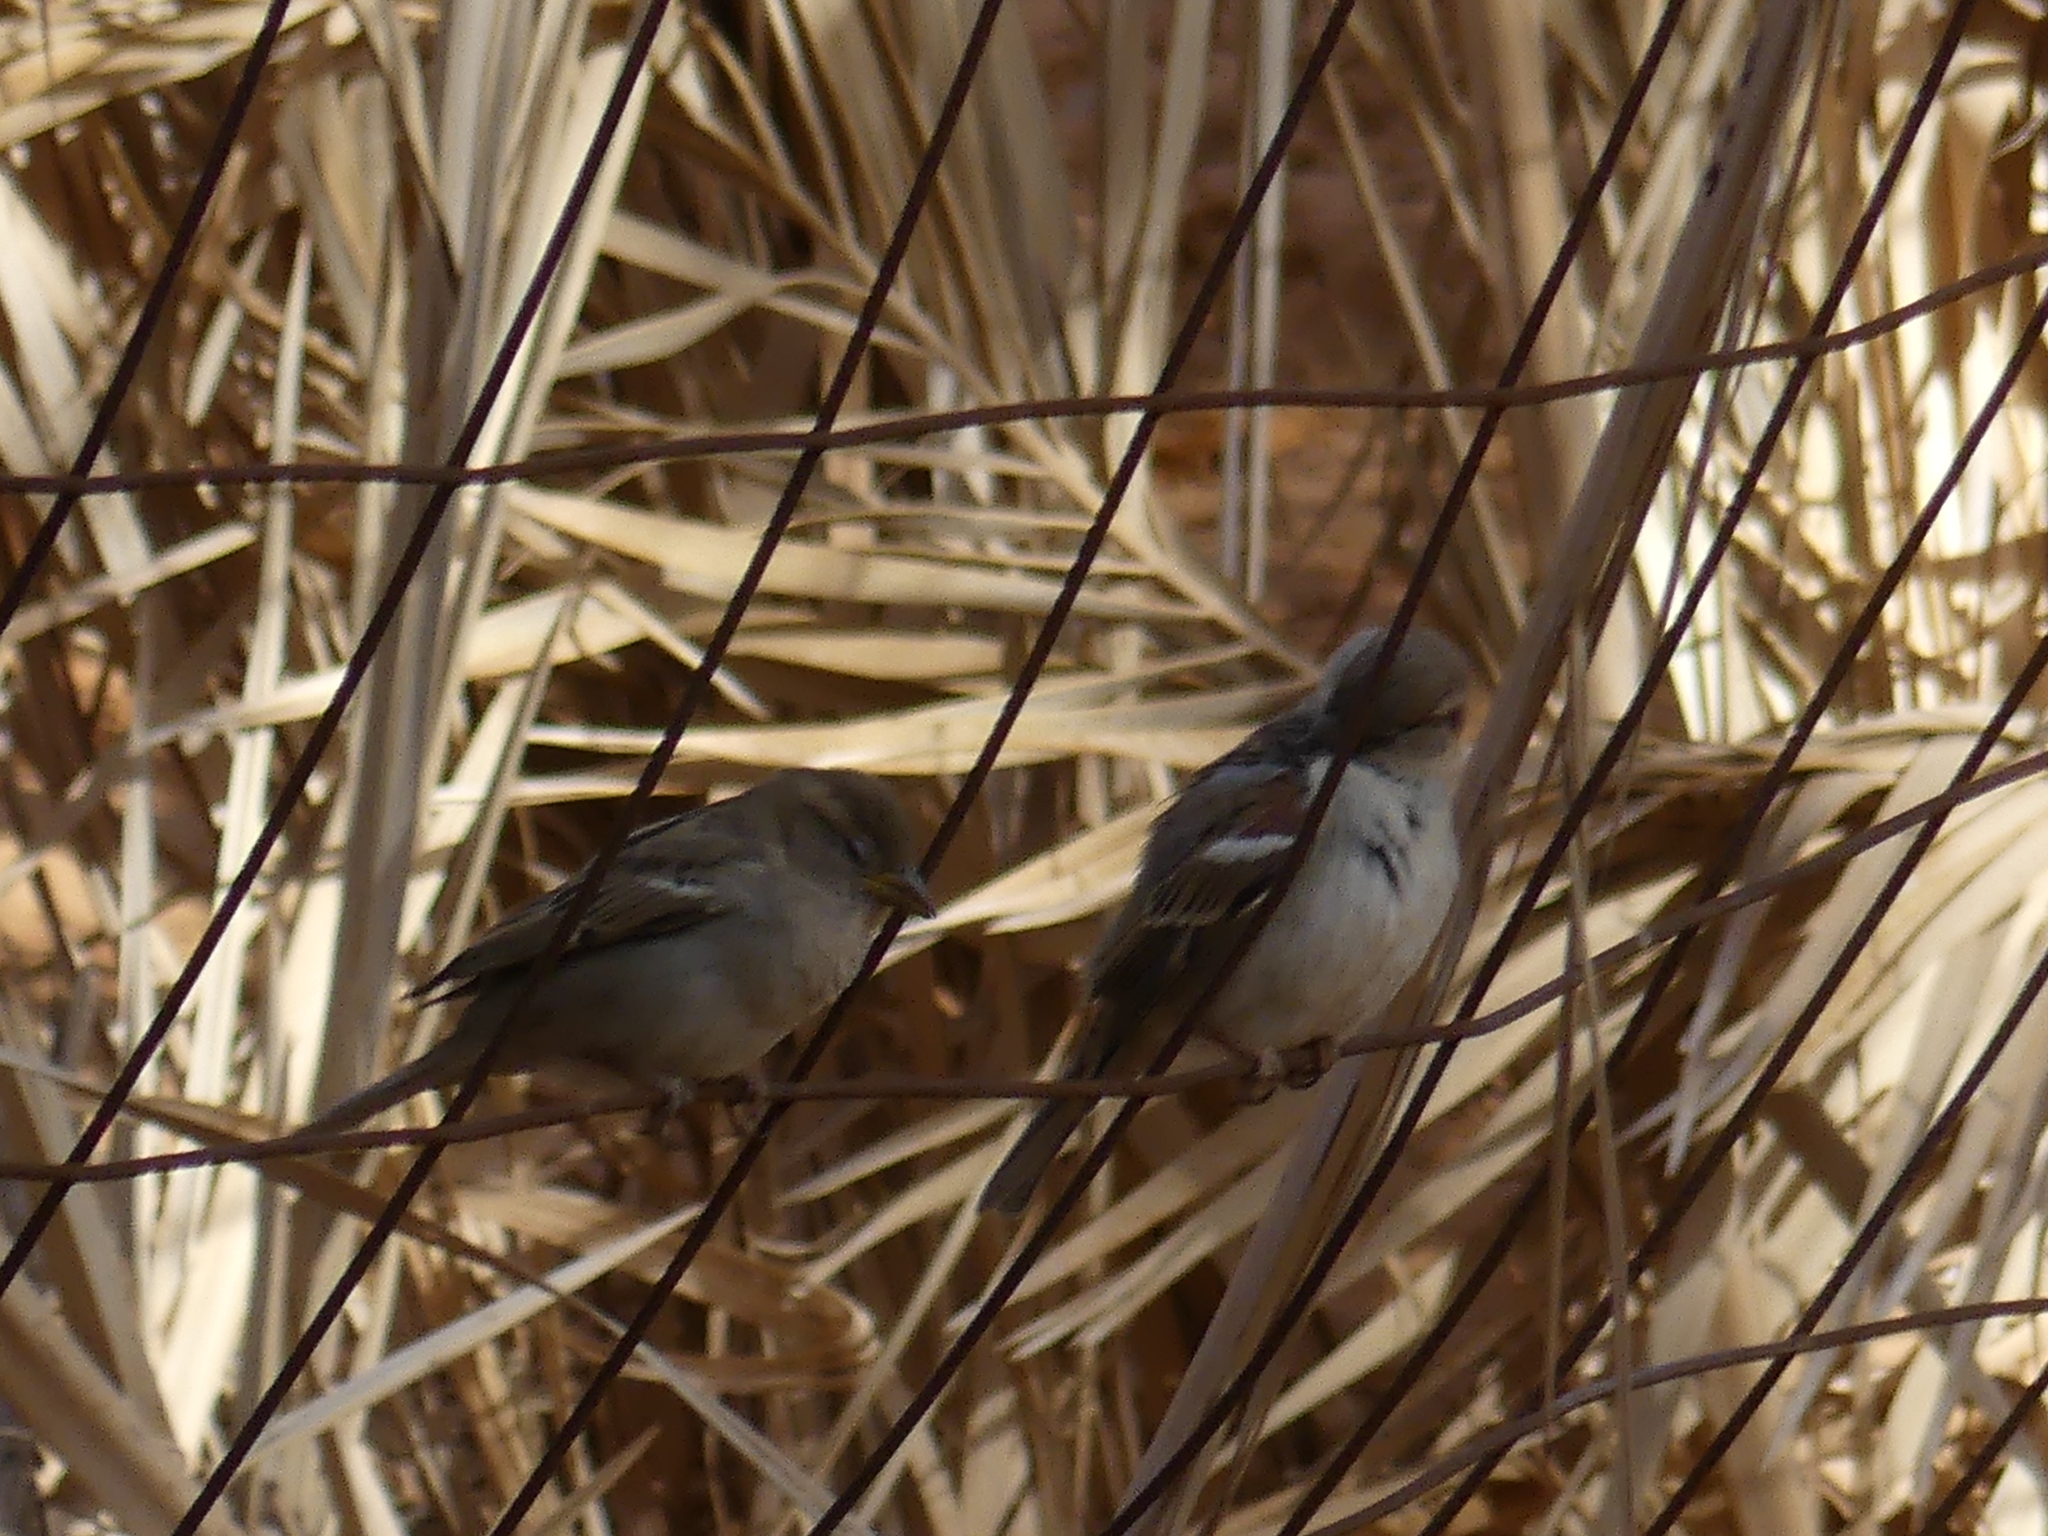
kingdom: Animalia
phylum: Chordata
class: Aves
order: Passeriformes
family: Passeridae
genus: Passer
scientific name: Passer domesticus
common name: House sparrow
